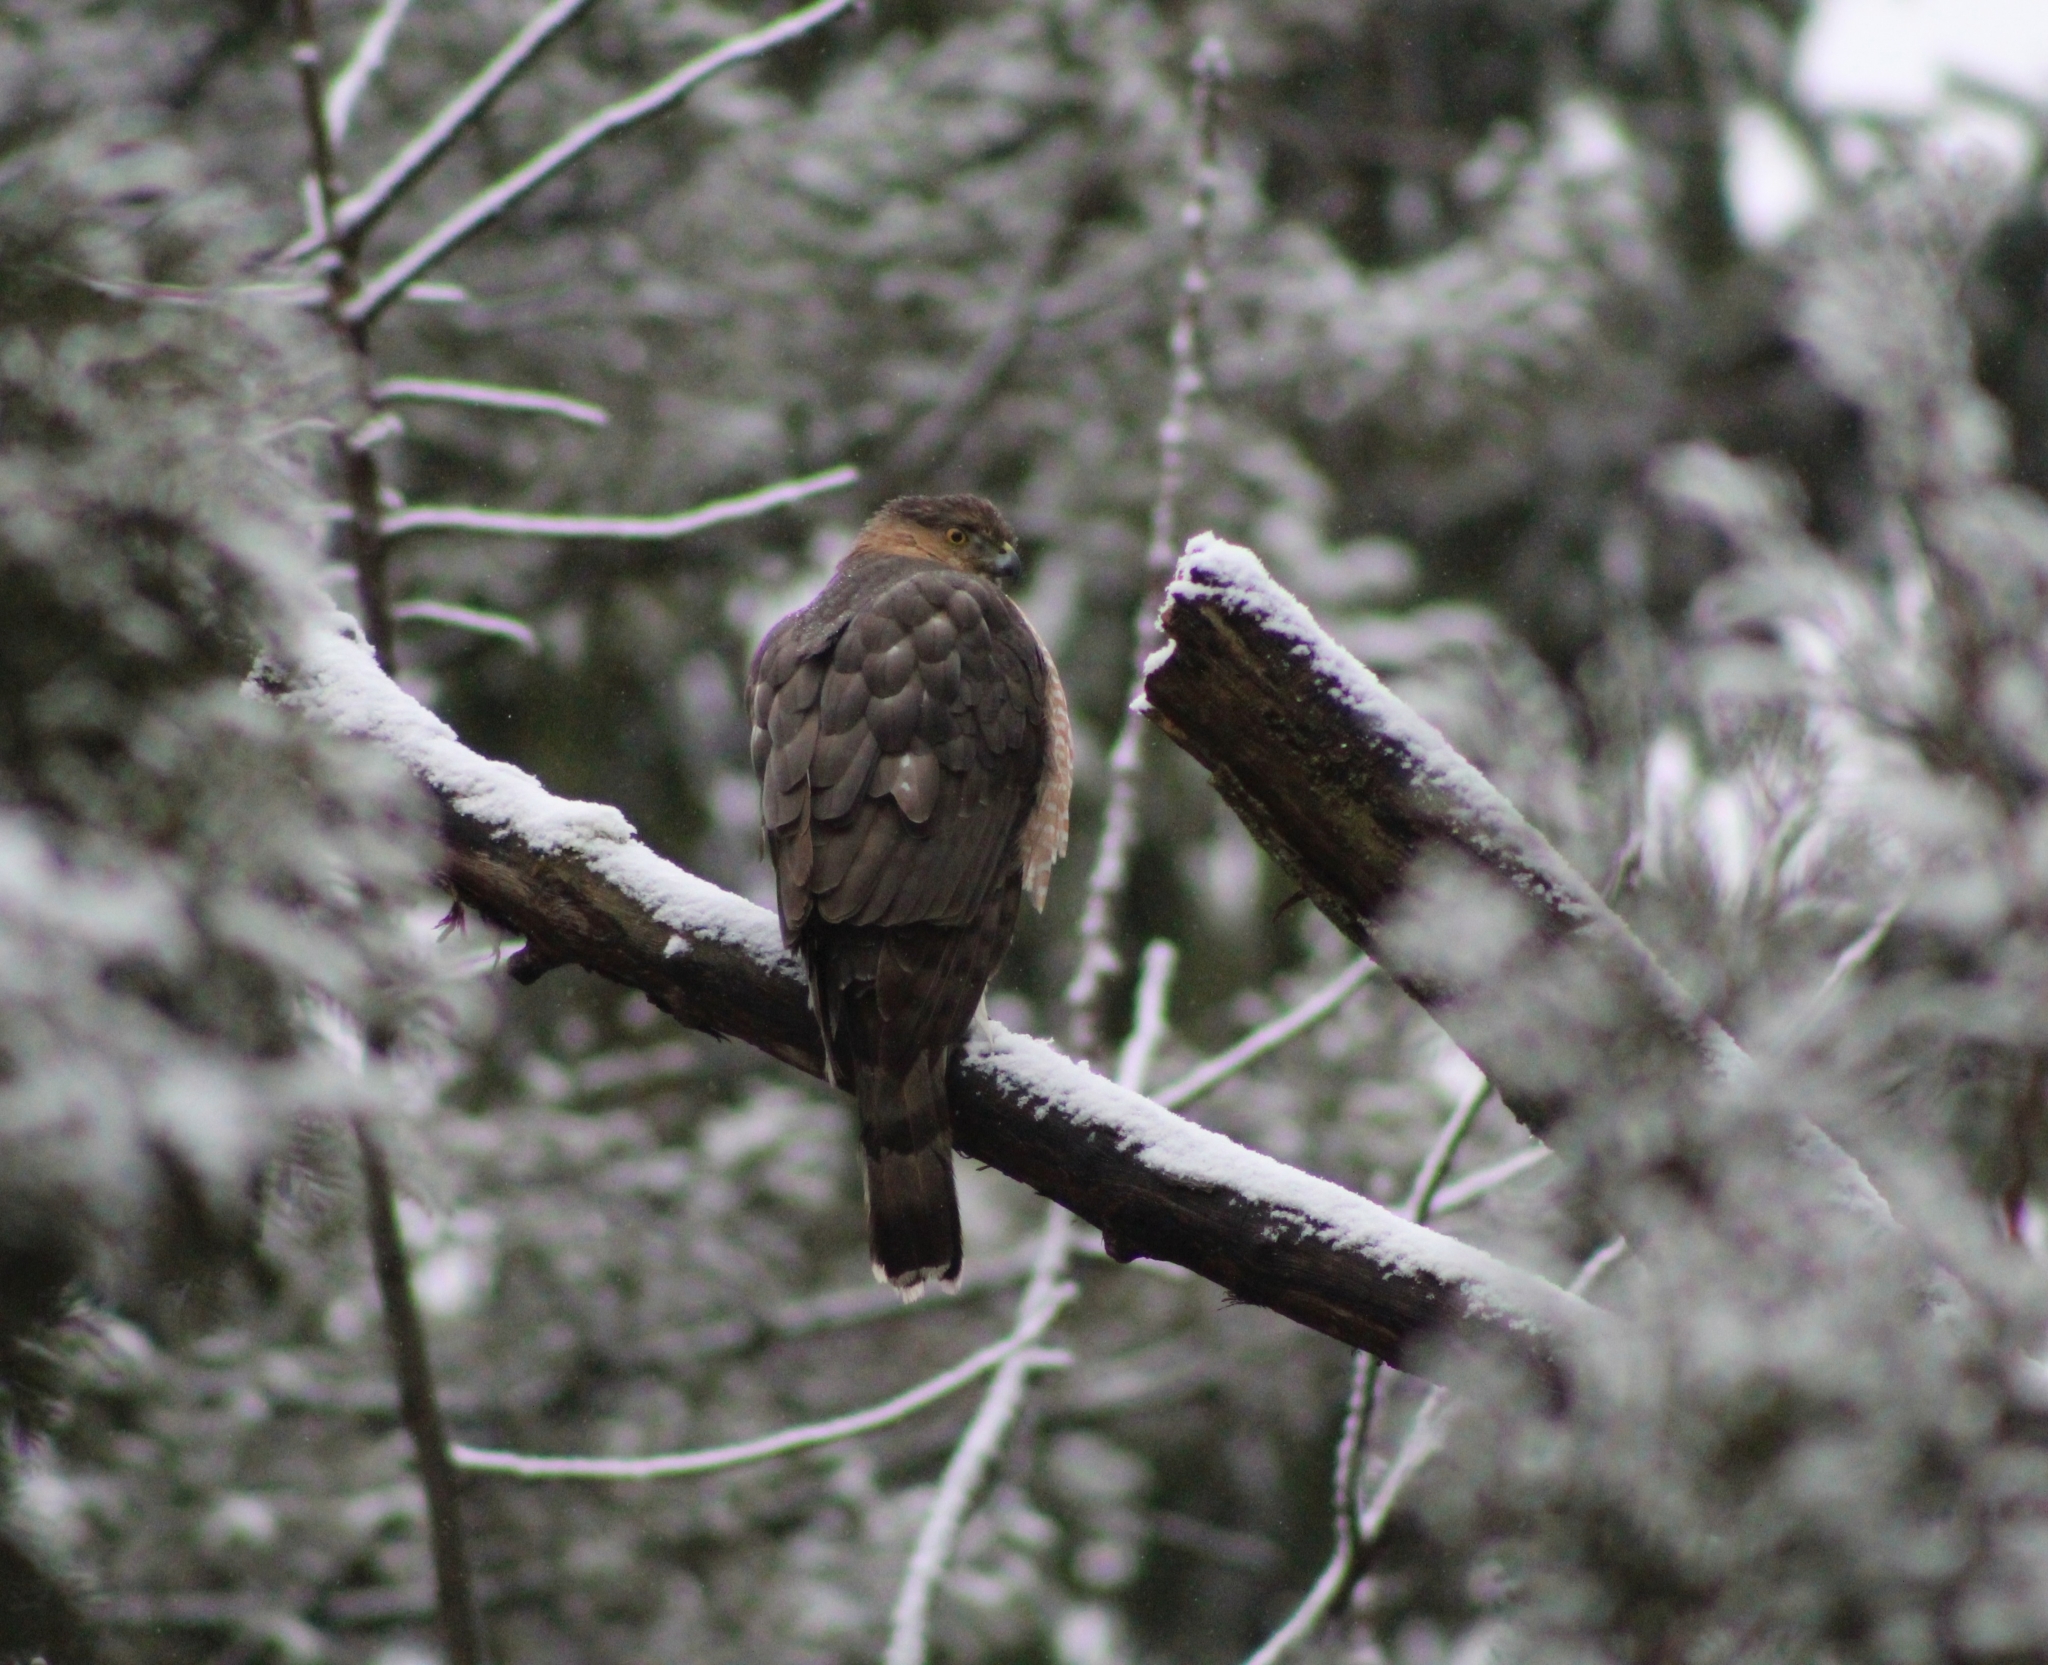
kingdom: Animalia
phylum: Chordata
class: Aves
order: Accipitriformes
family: Accipitridae
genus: Accipiter
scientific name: Accipiter cooperii
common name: Cooper's hawk
